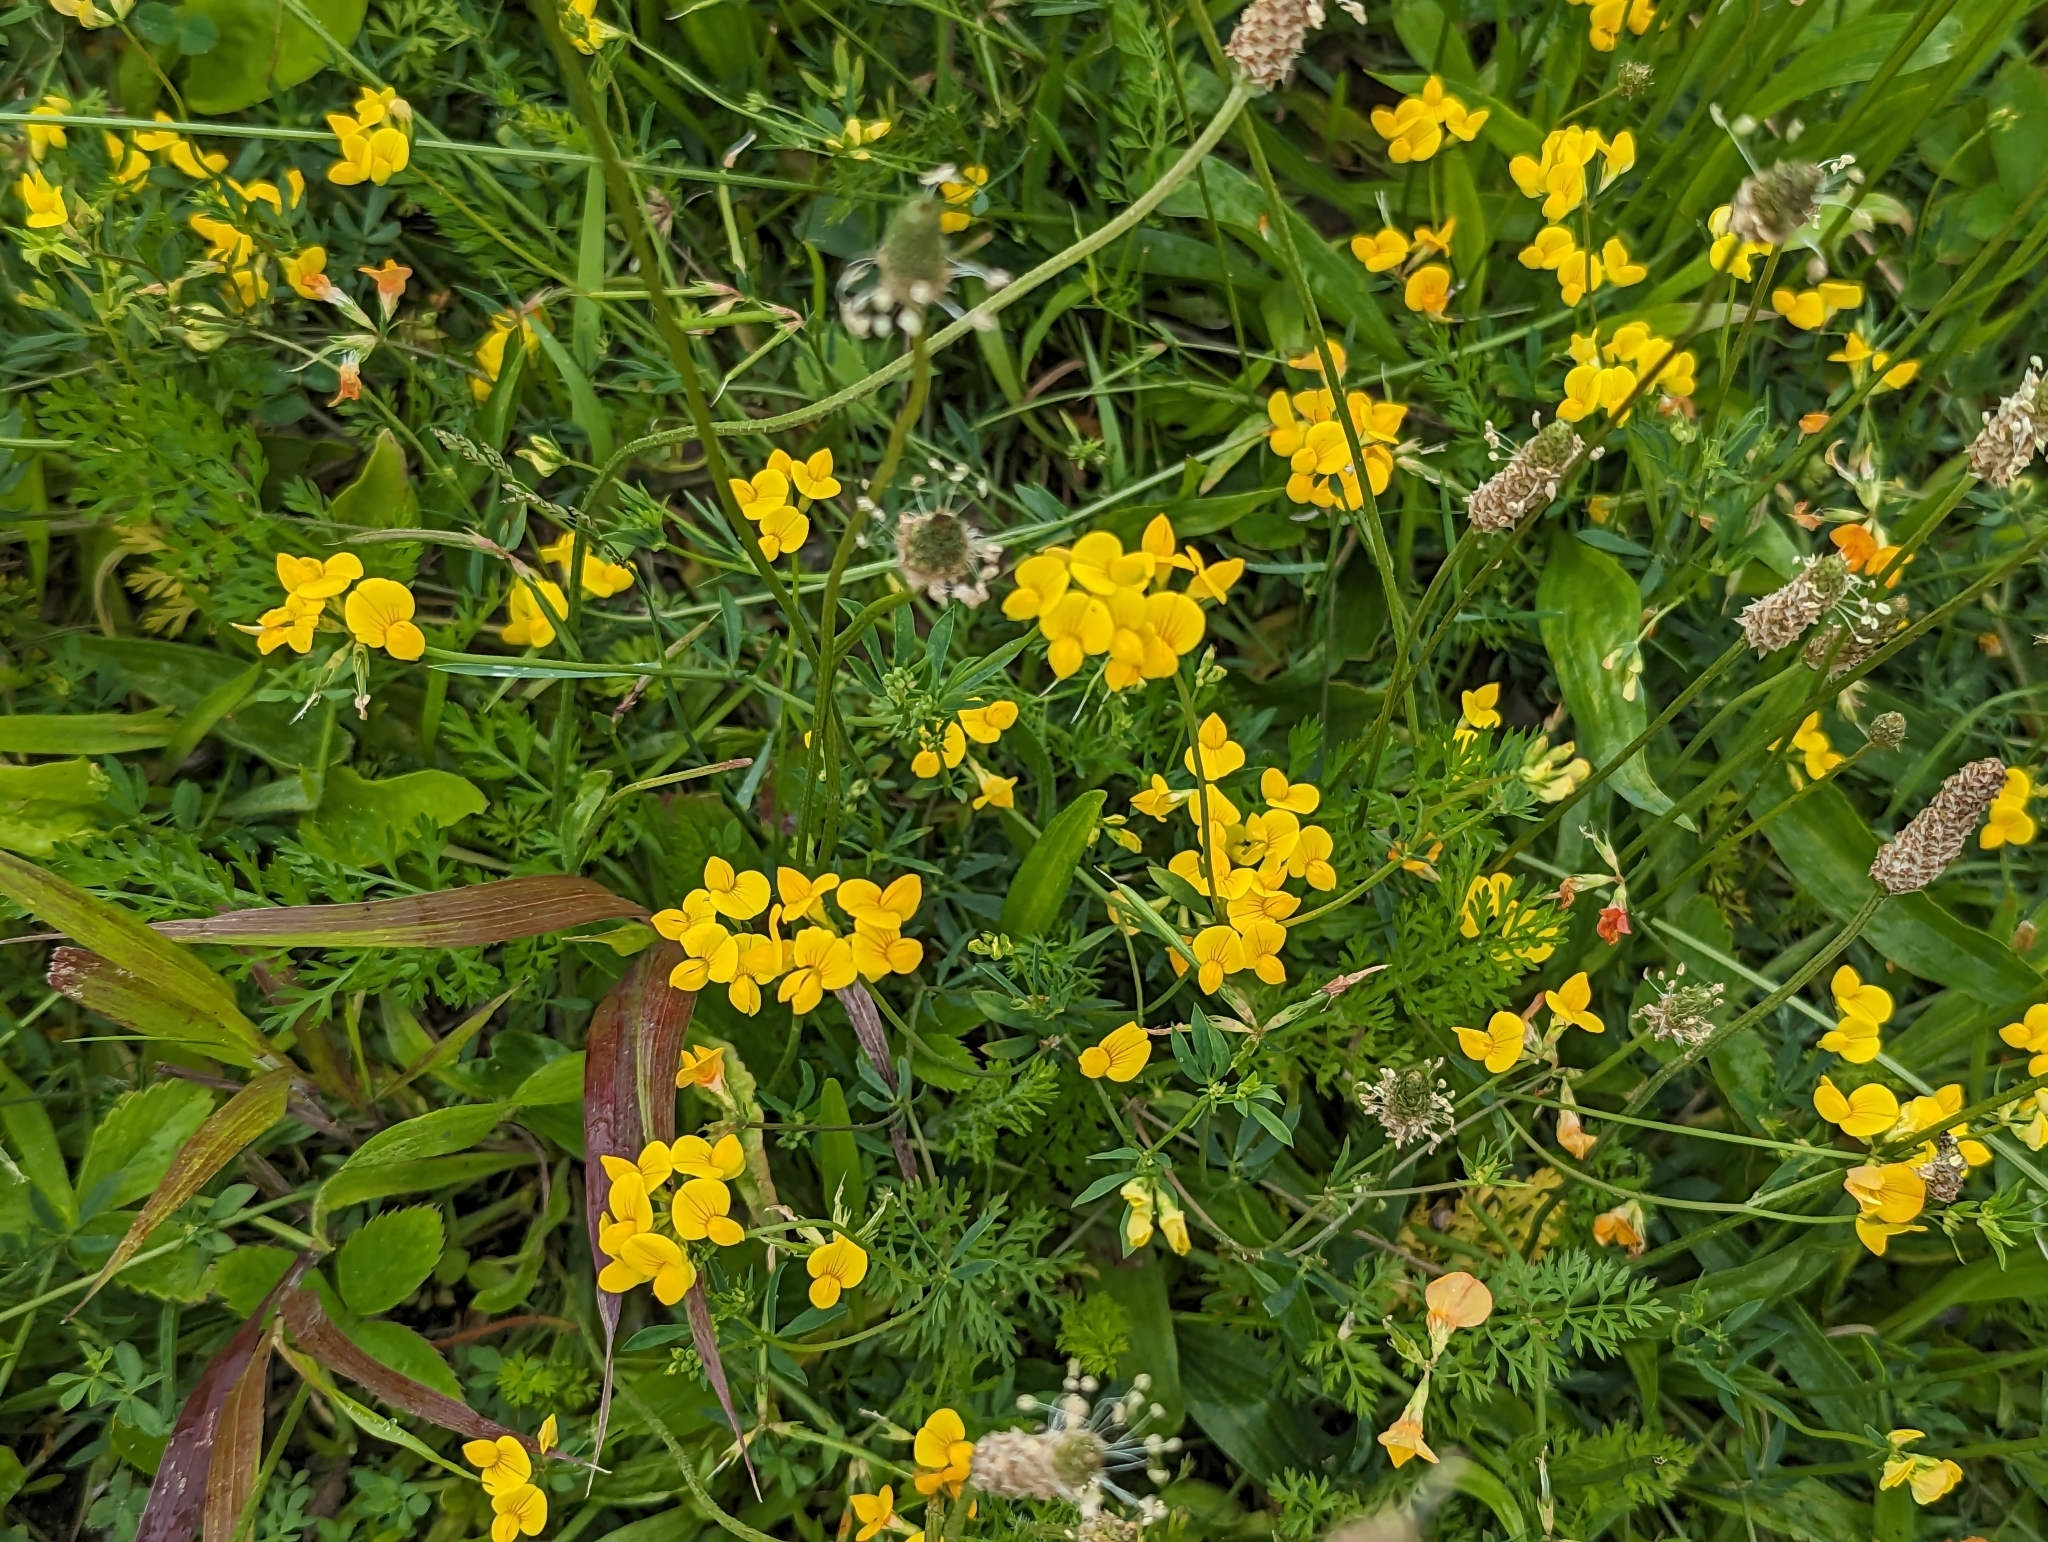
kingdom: Plantae
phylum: Tracheophyta
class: Magnoliopsida
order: Fabales
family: Fabaceae
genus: Lotus
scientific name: Lotus corniculatus
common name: Common bird's-foot-trefoil
